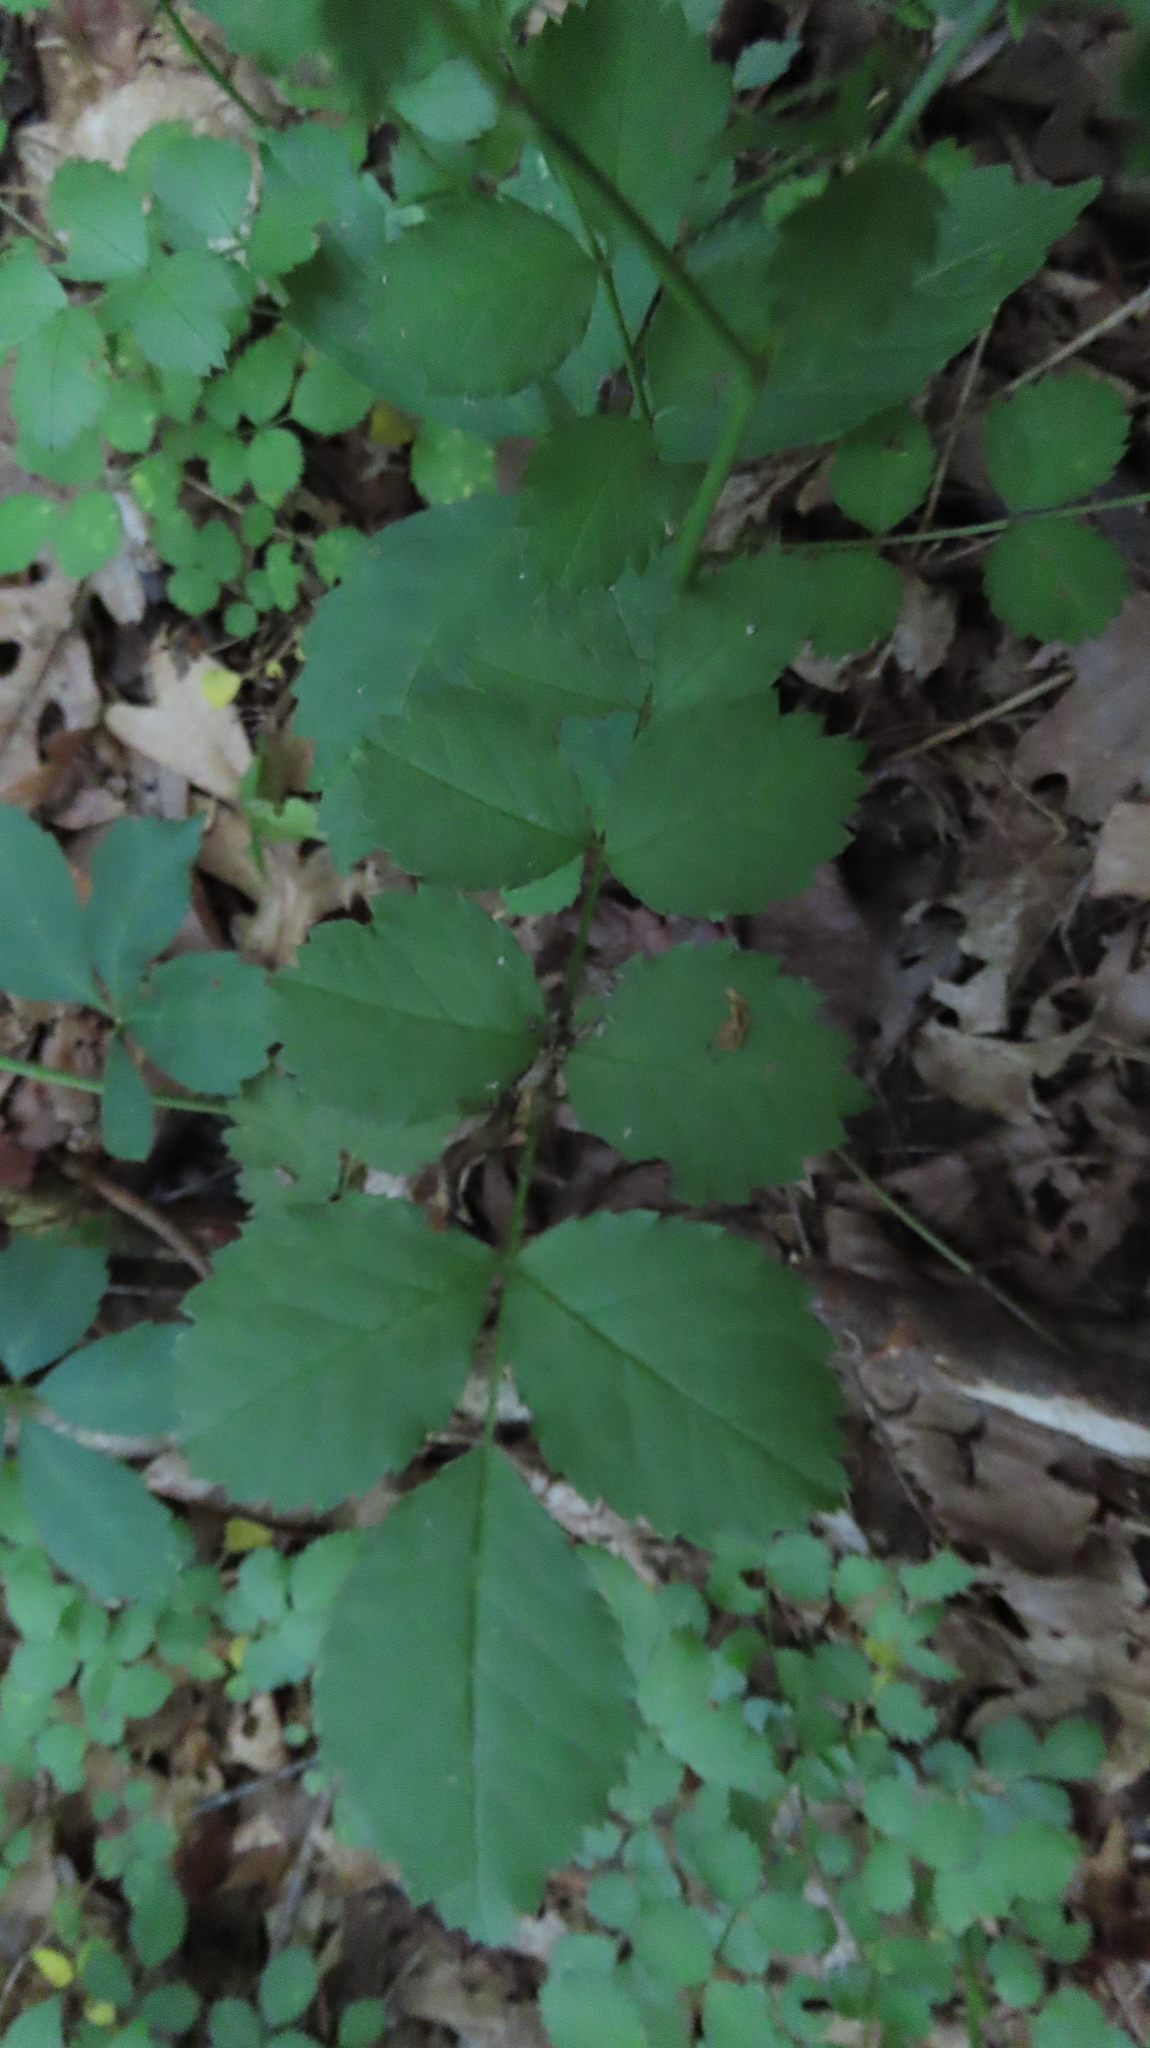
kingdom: Plantae
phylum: Tracheophyta
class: Magnoliopsida
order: Rosales
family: Rosaceae
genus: Rosa
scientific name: Rosa multiflora
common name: Multiflora rose
